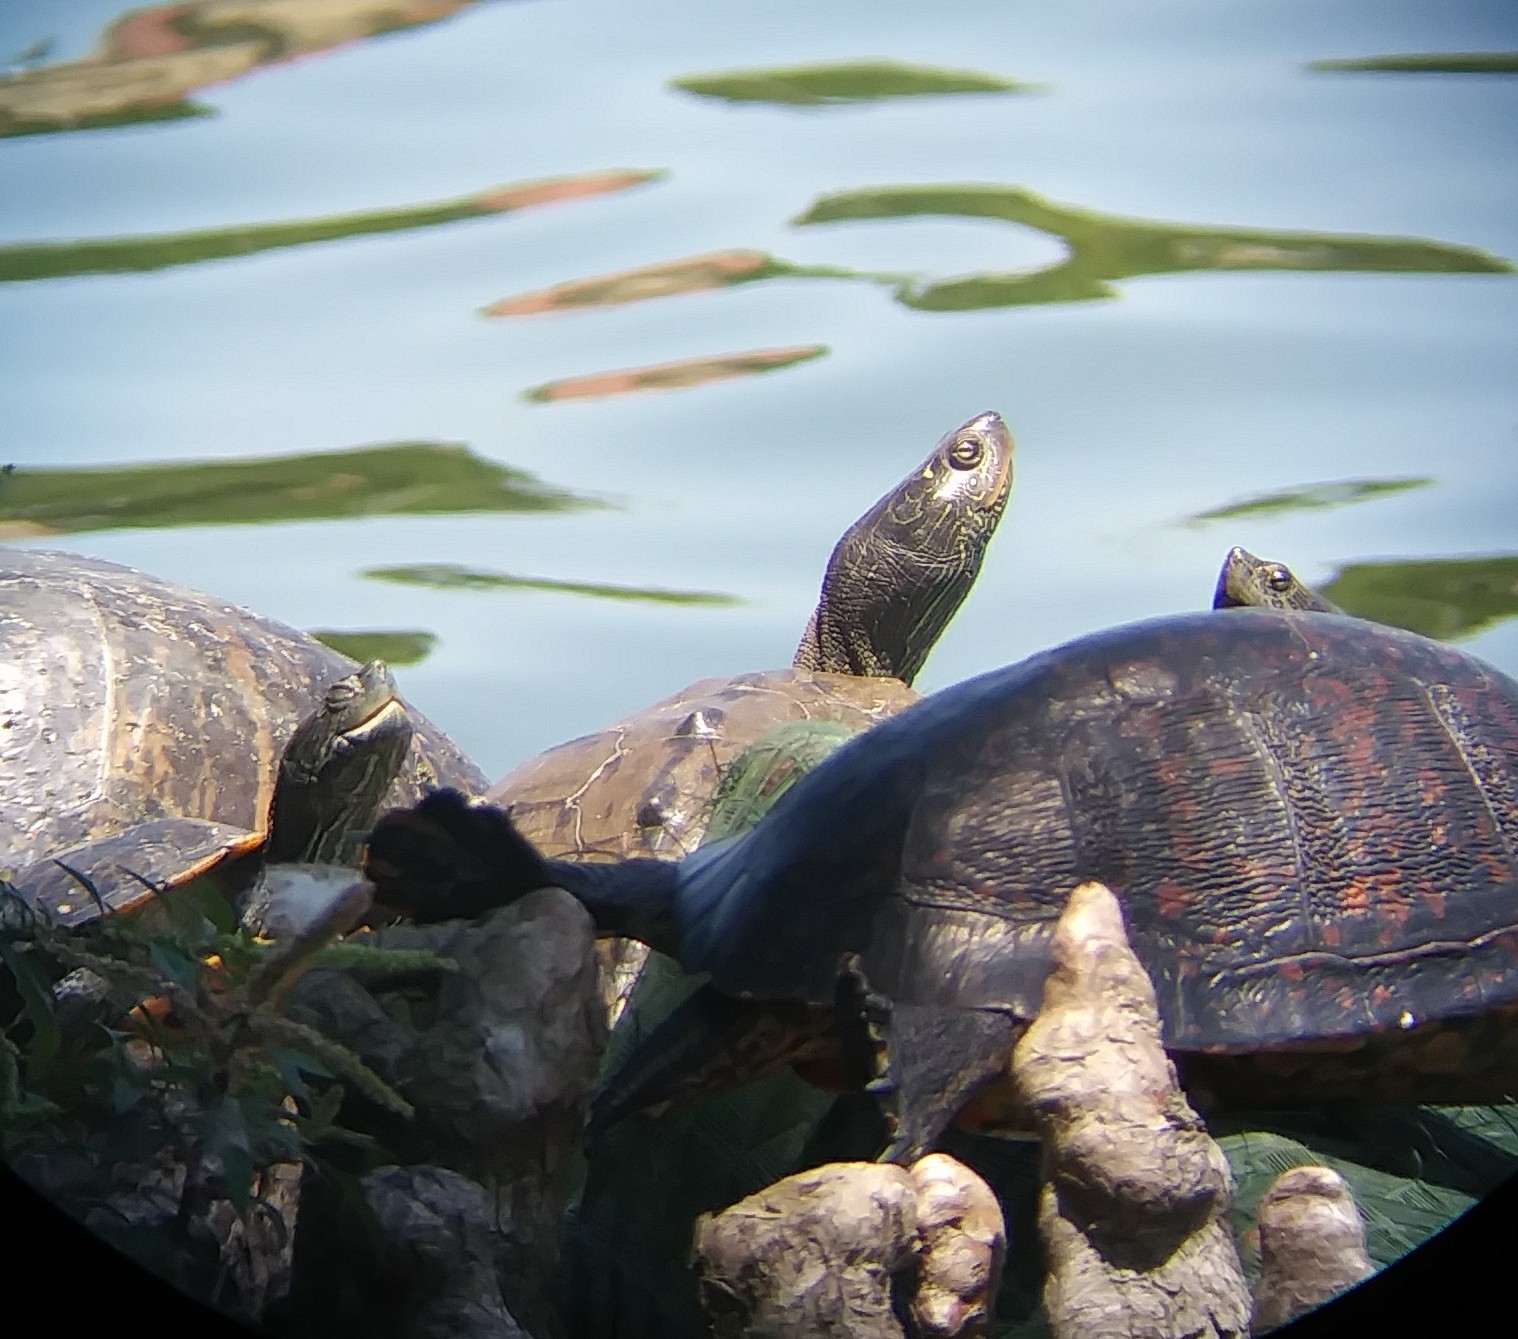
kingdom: Animalia
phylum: Chordata
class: Testudines
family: Emydidae
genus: Pseudemys
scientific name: Pseudemys nelsoni
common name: Florida red-bellied turtle
